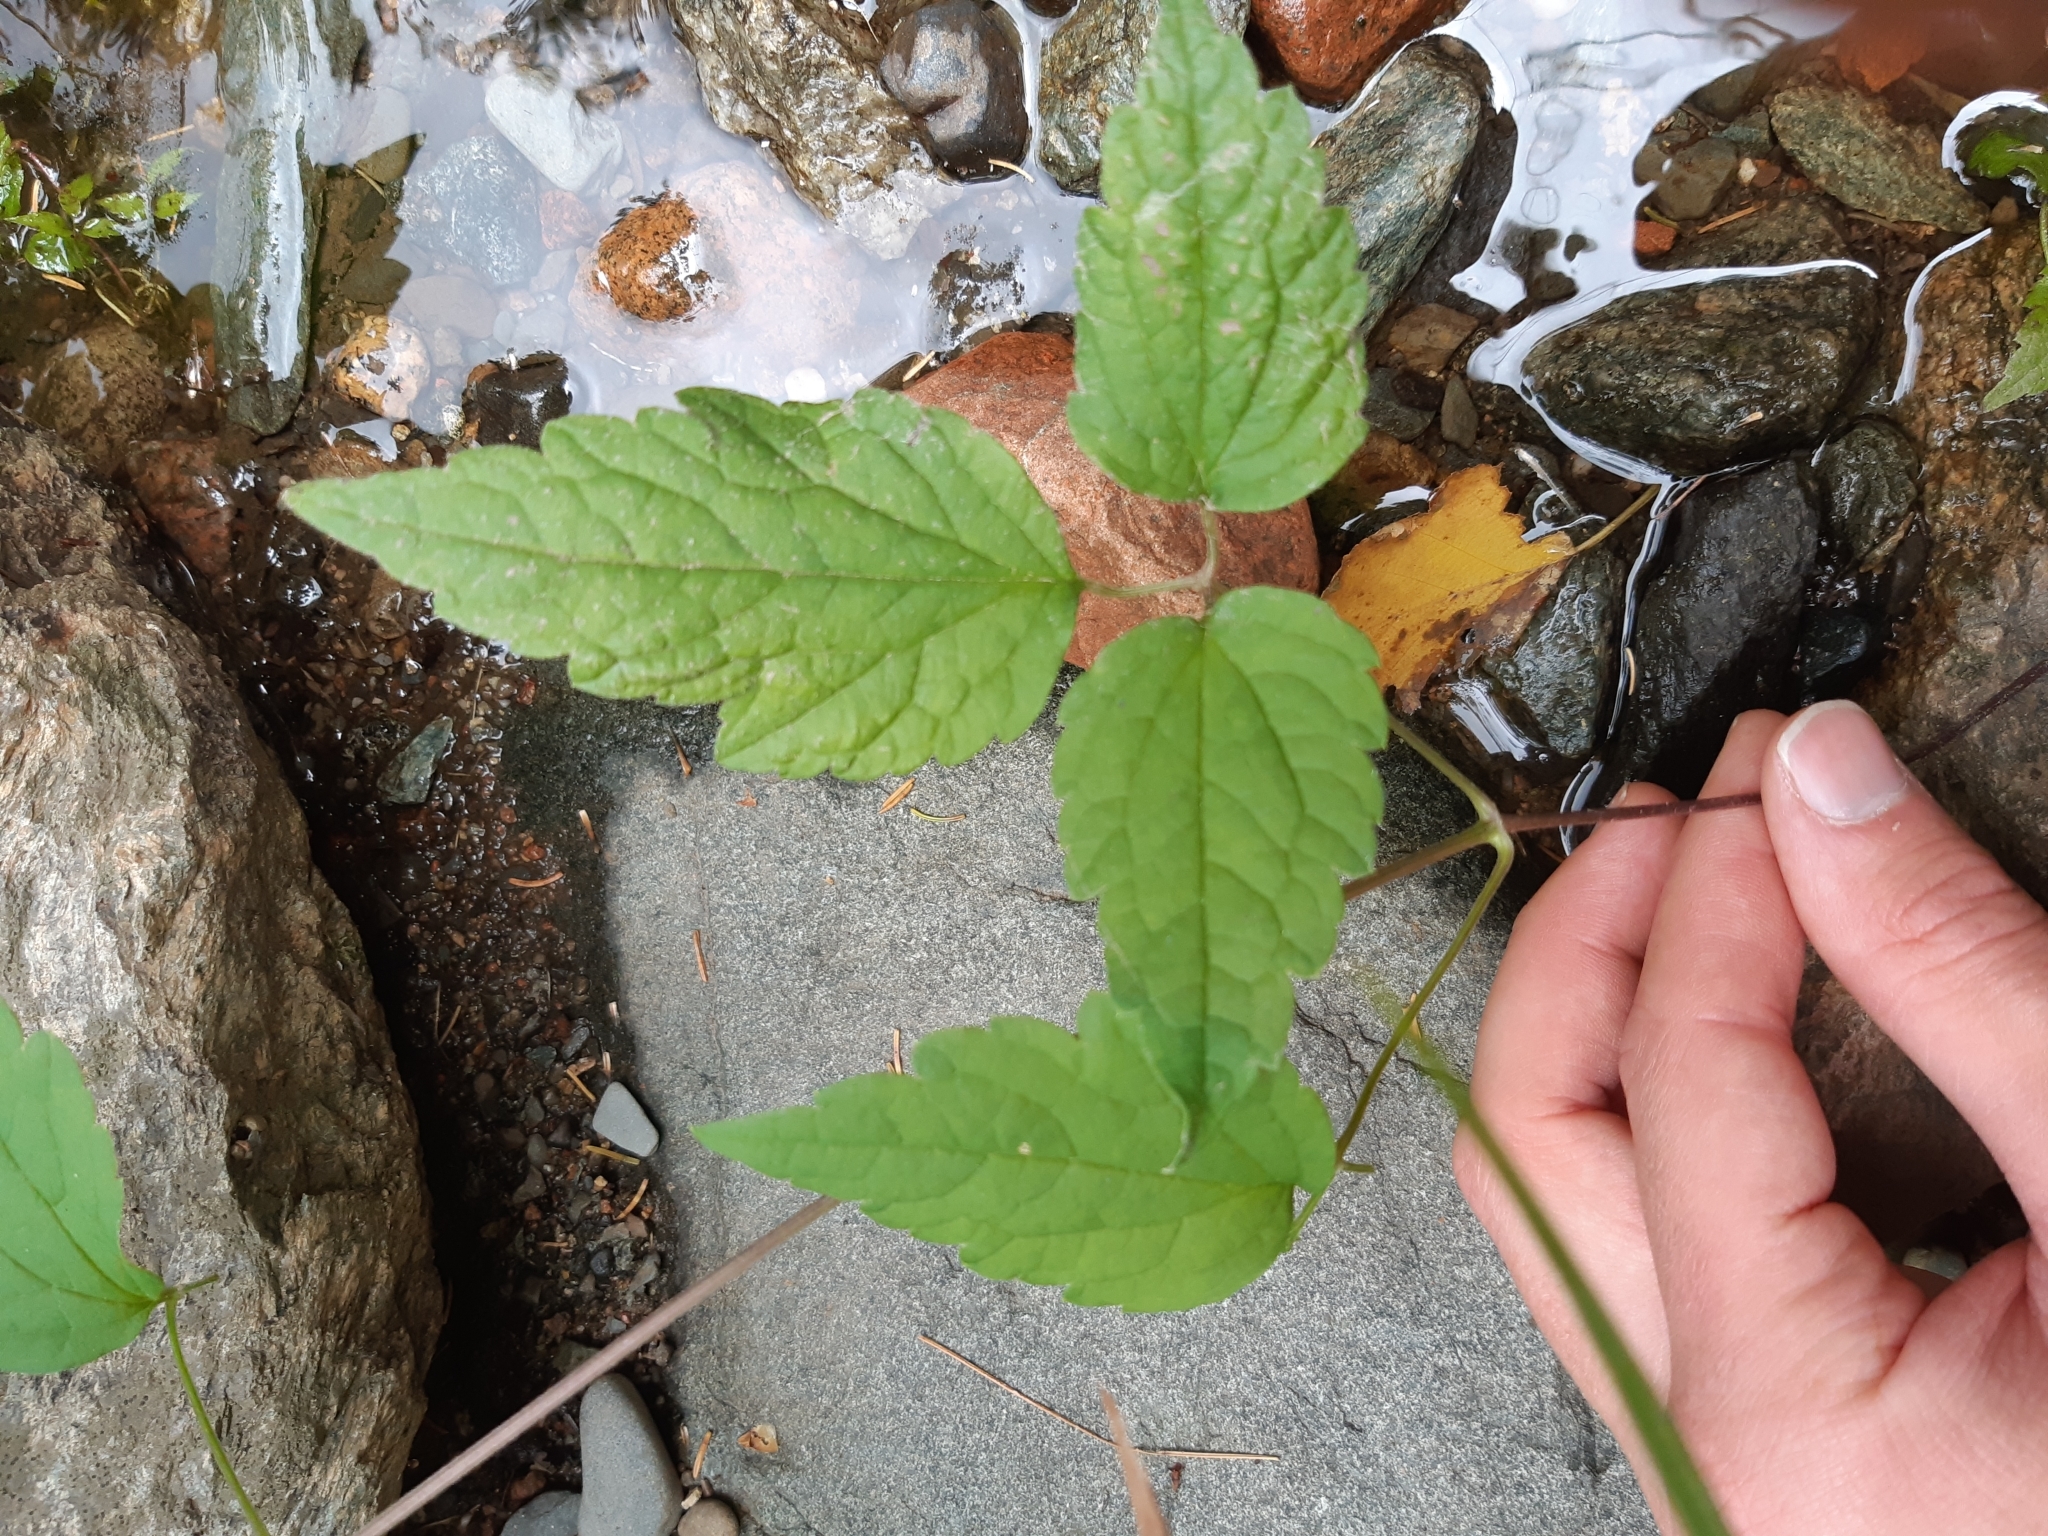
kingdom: Plantae
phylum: Tracheophyta
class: Magnoliopsida
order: Ranunculales
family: Ranunculaceae
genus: Clematis
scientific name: Clematis virginiana
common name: Virgin's-bower
